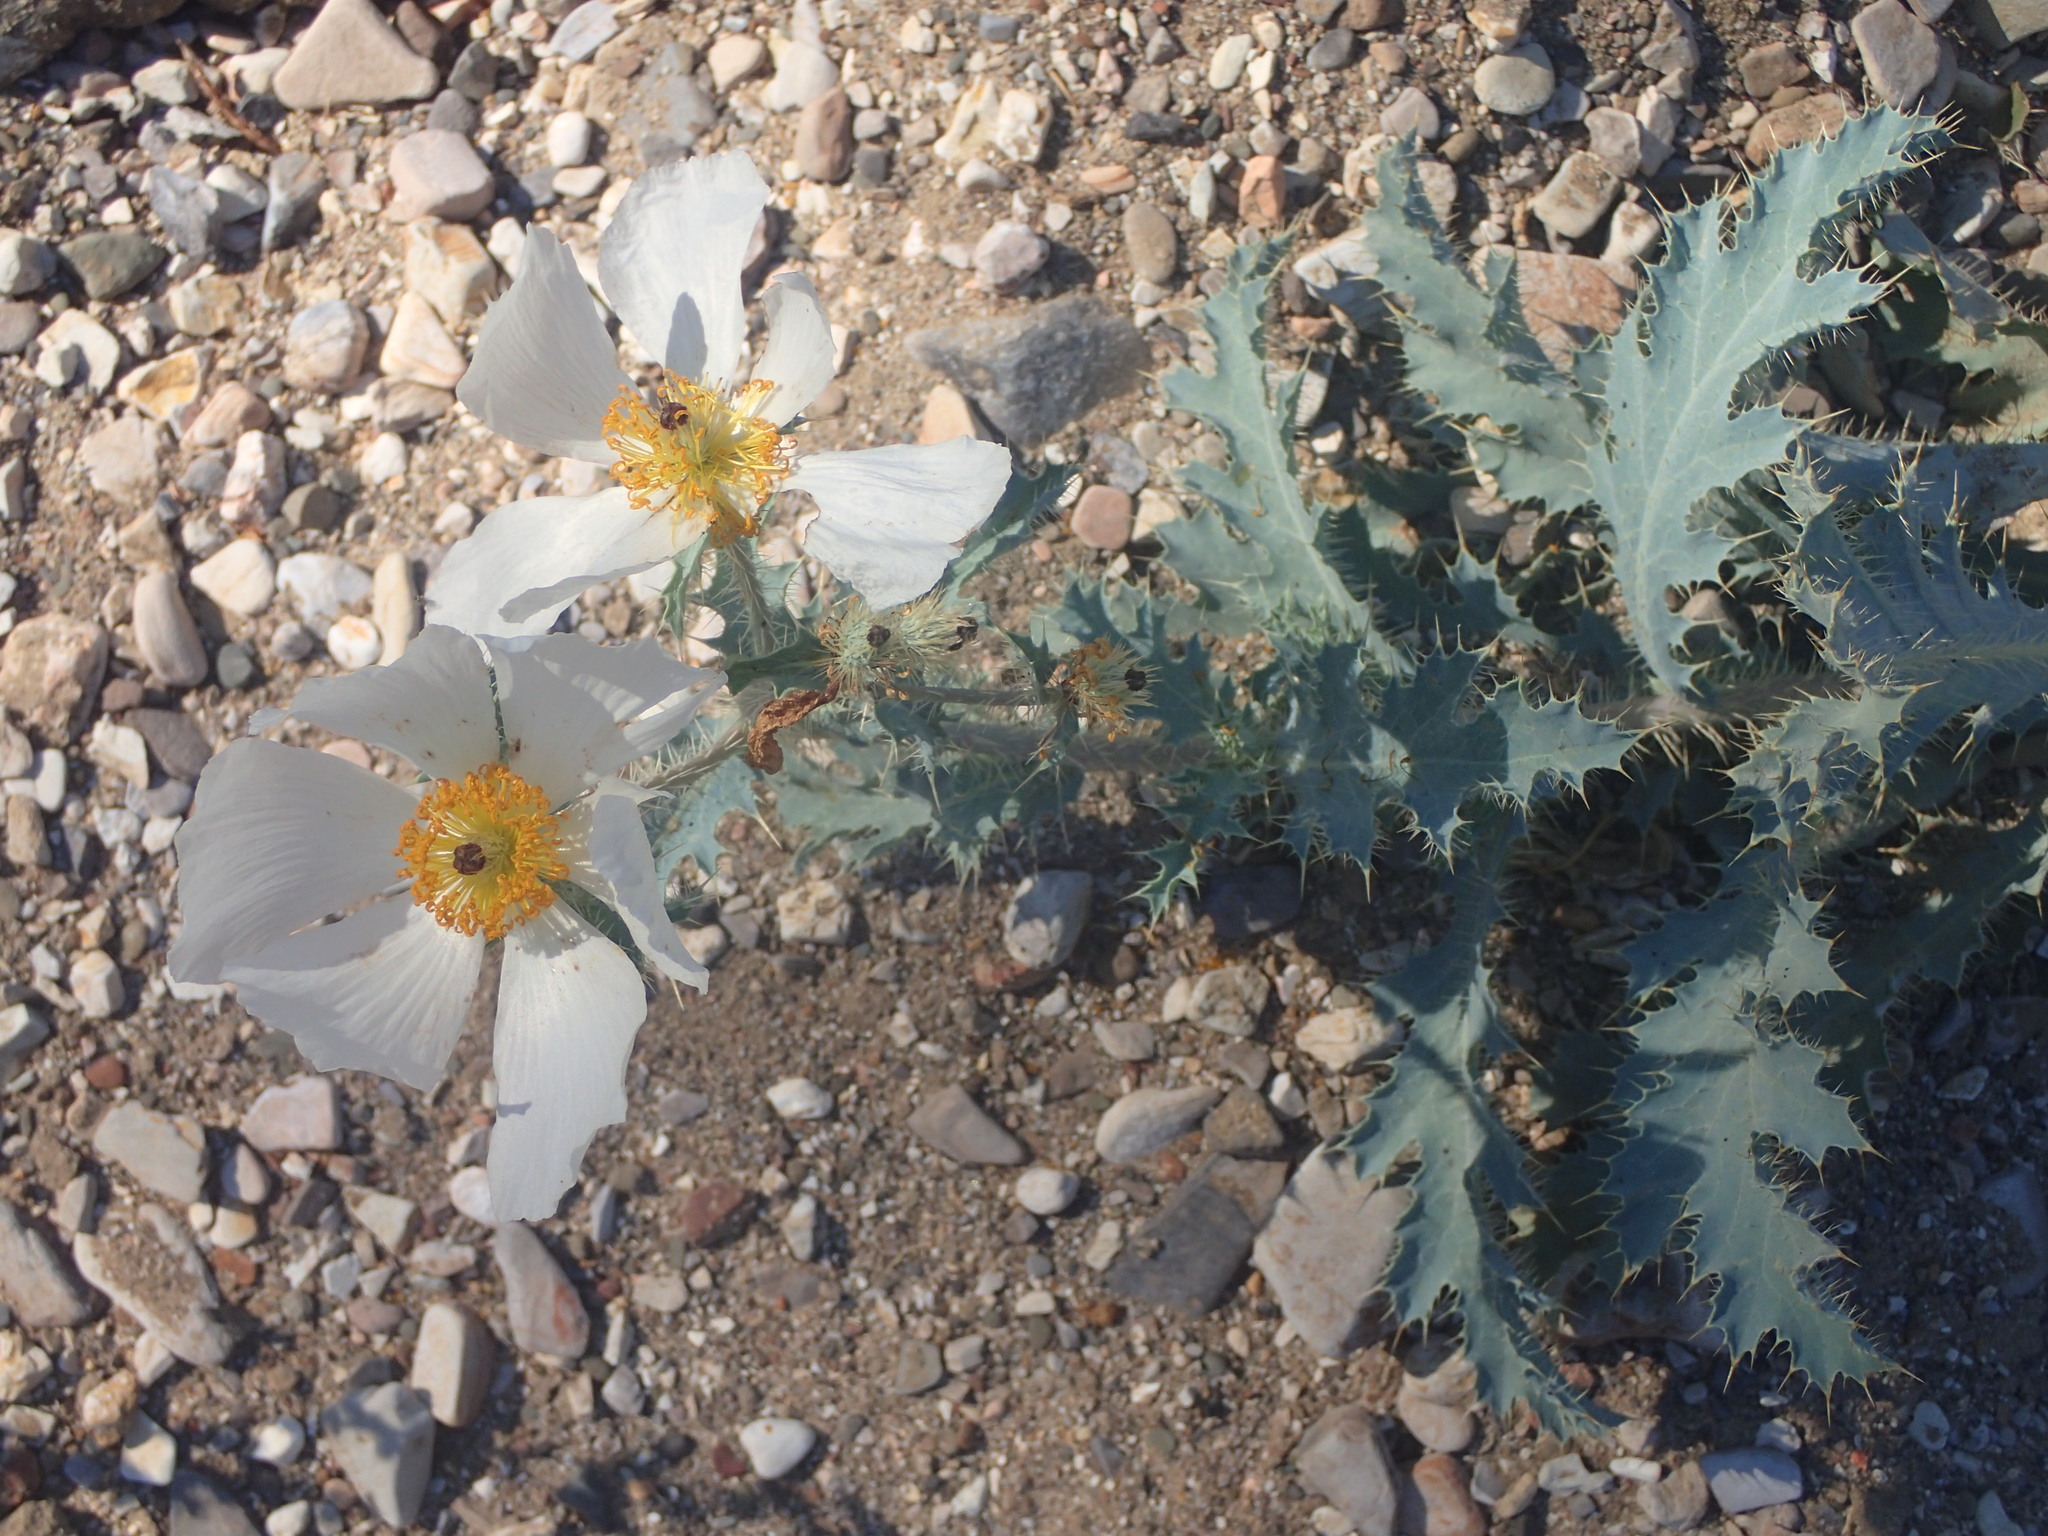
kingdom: Plantae
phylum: Tracheophyta
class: Magnoliopsida
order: Ranunculales
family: Papaveraceae
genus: Argemone
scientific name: Argemone munita
